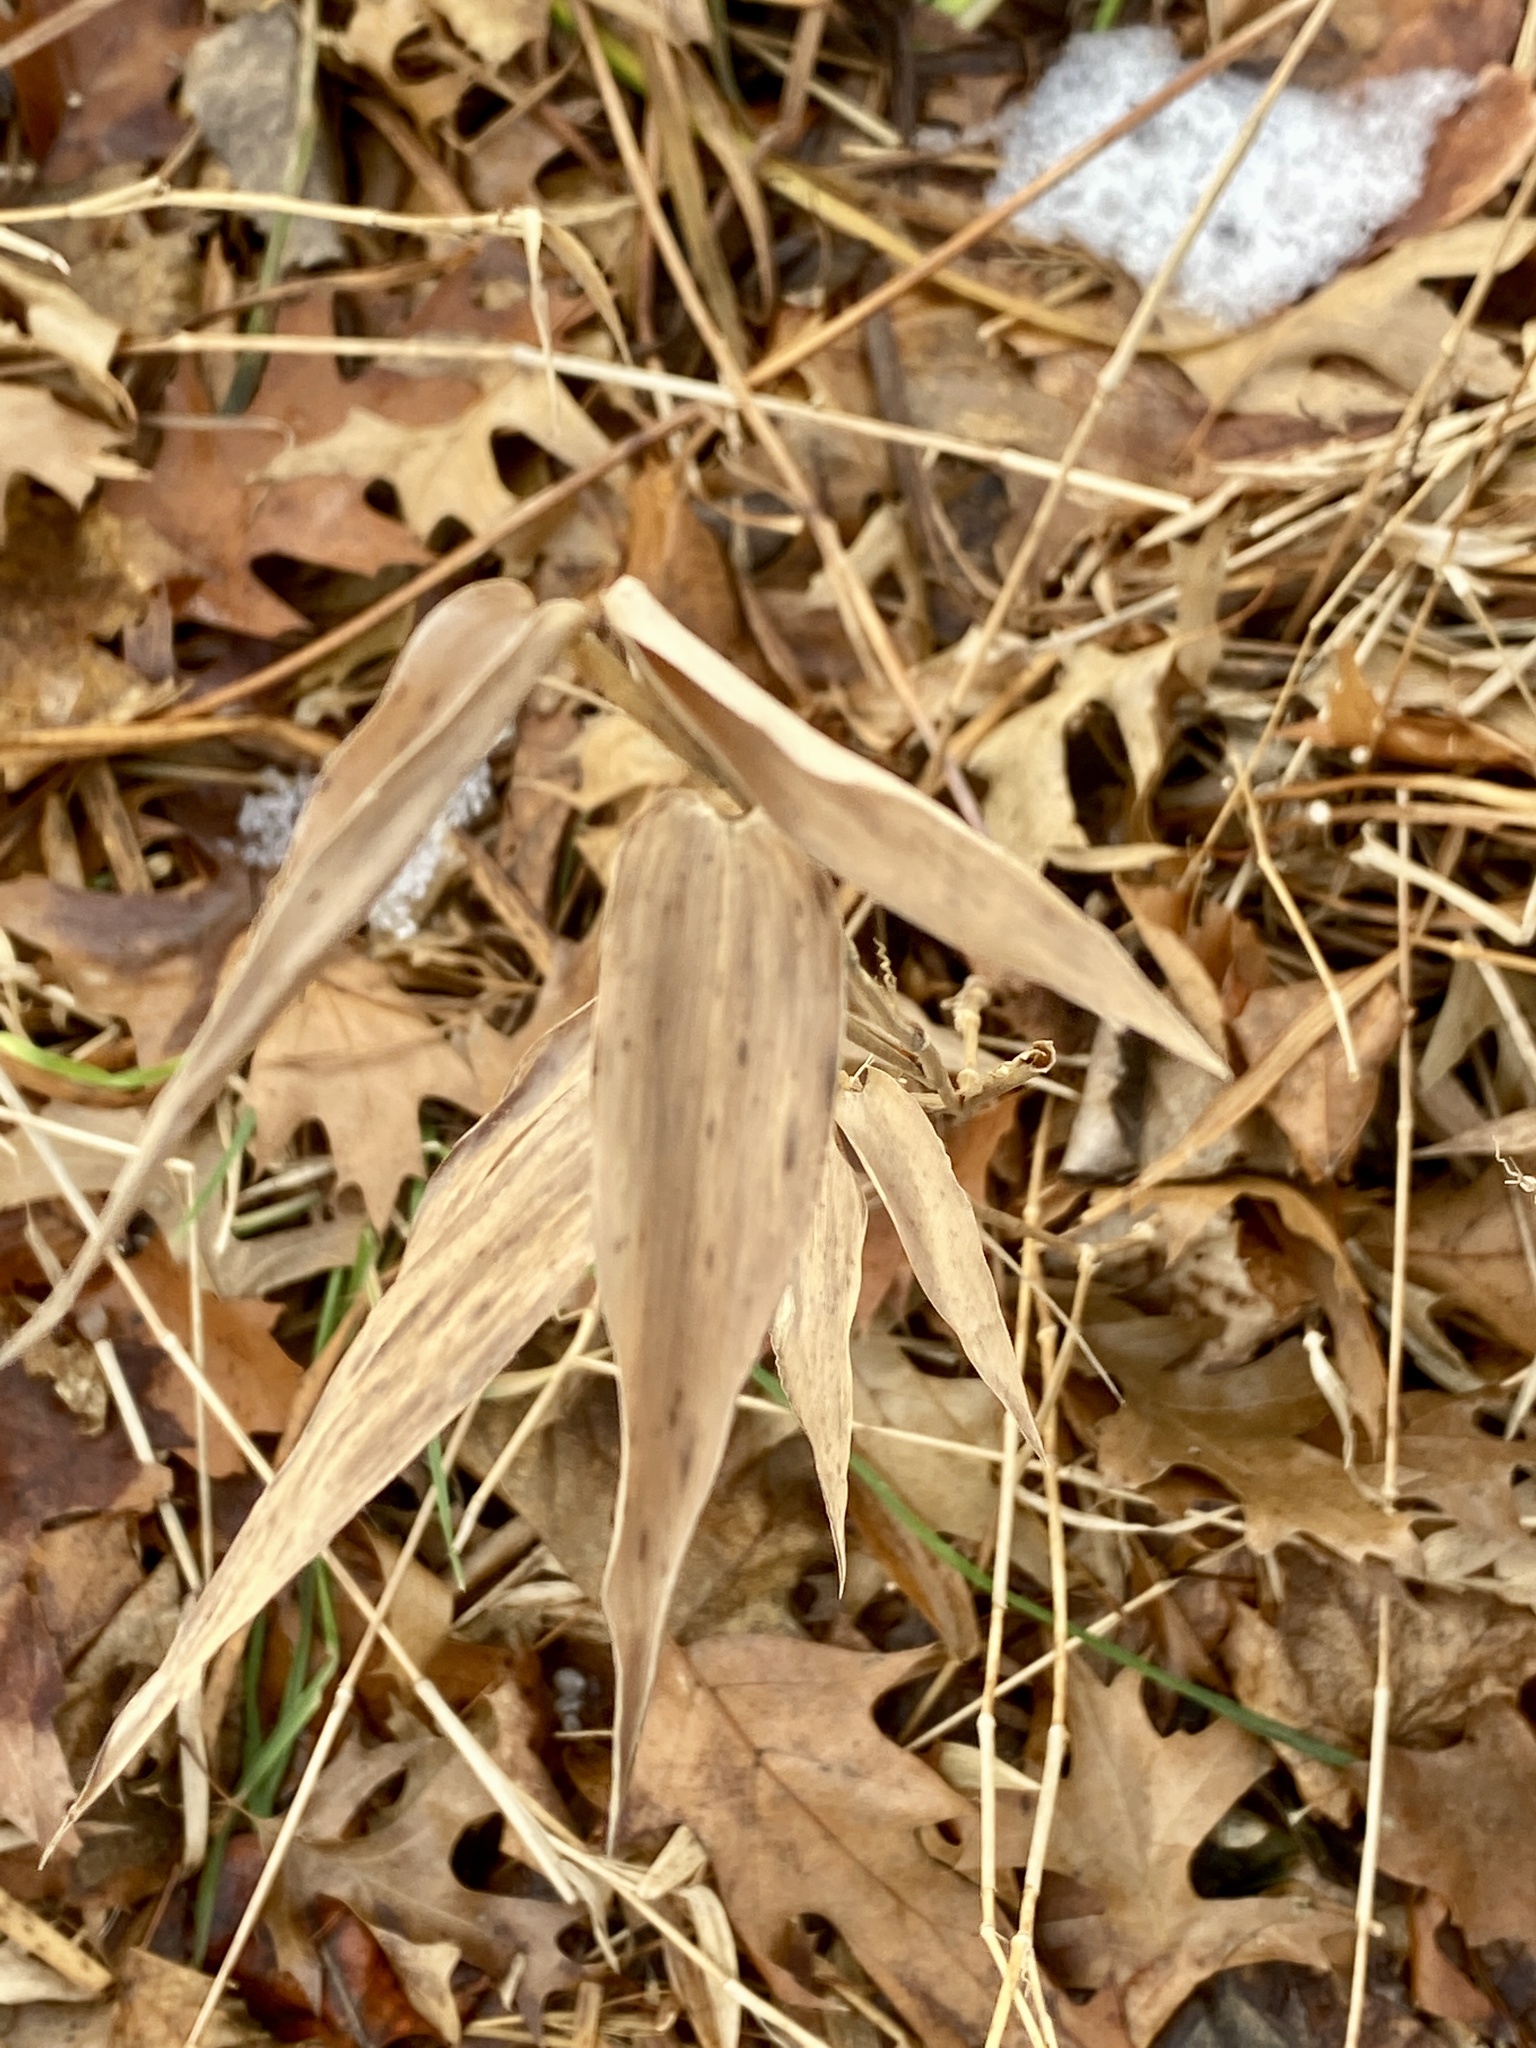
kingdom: Plantae
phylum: Tracheophyta
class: Liliopsida
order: Poales
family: Poaceae
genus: Dichanthelium
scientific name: Dichanthelium clandestinum
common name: Deer-tongue grass
